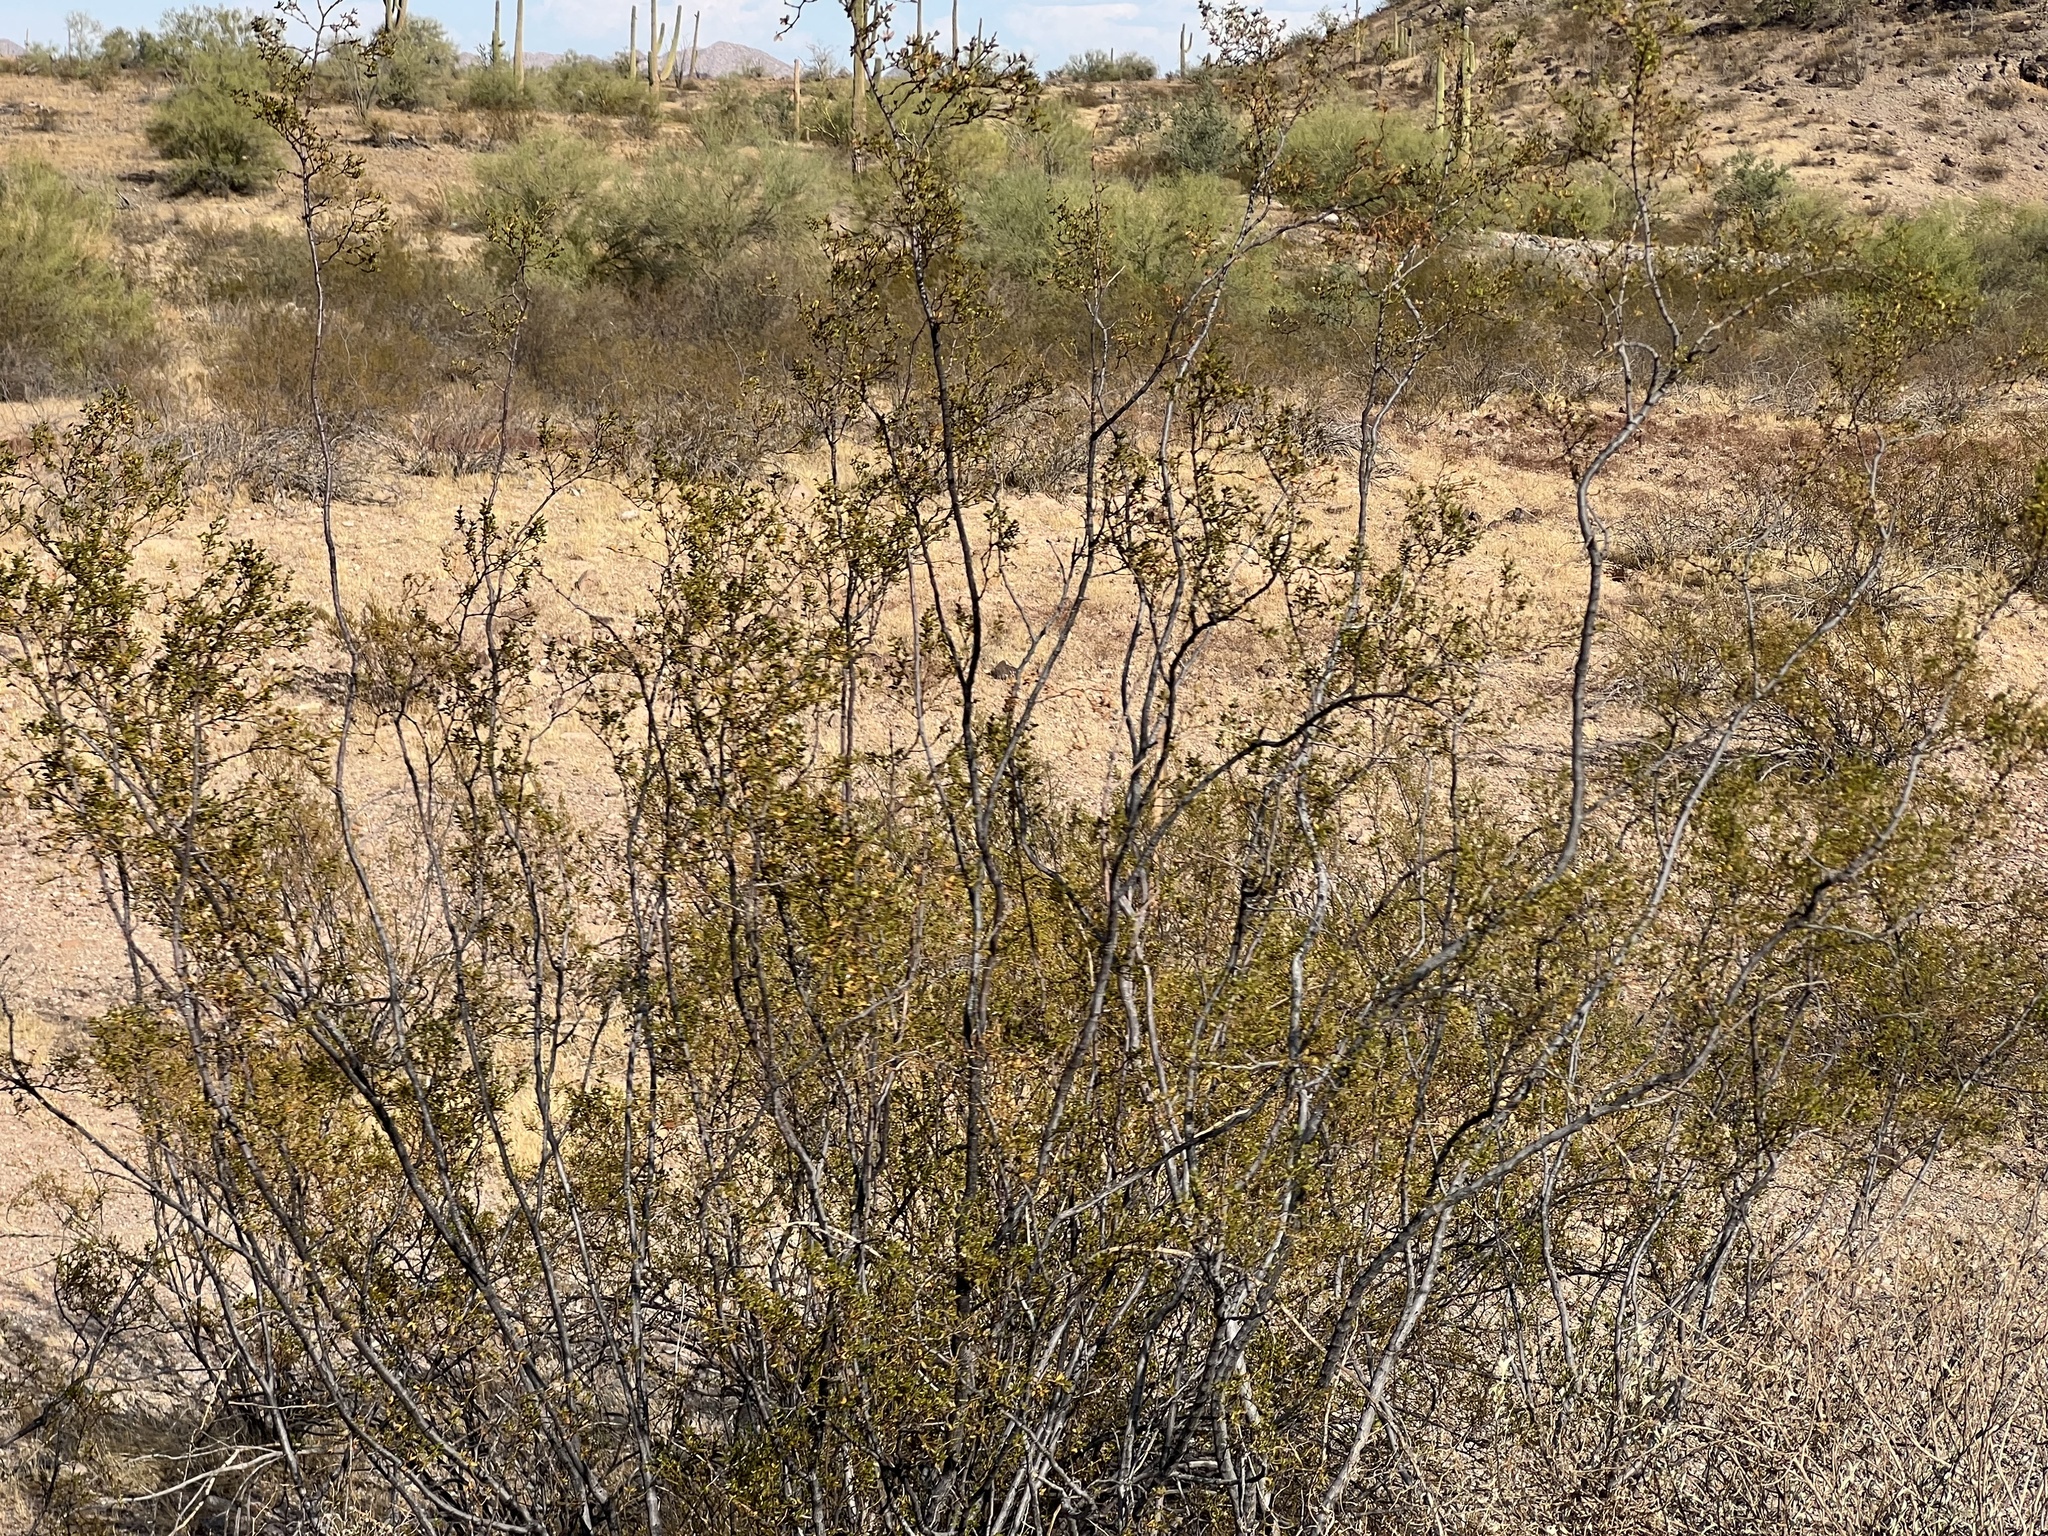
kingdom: Plantae
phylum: Tracheophyta
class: Magnoliopsida
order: Zygophyllales
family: Zygophyllaceae
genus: Larrea
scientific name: Larrea tridentata
